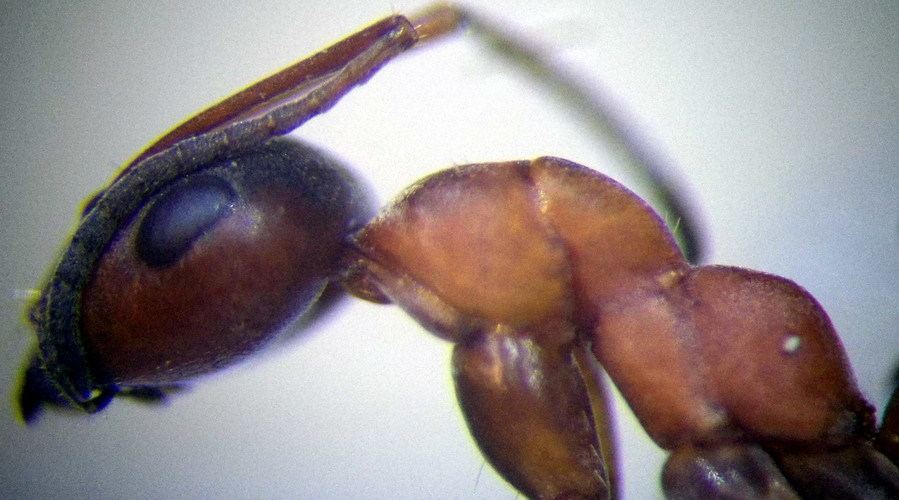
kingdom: Animalia
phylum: Arthropoda
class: Insecta
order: Hymenoptera
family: Formicidae
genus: Formica
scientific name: Formica cunicularia
